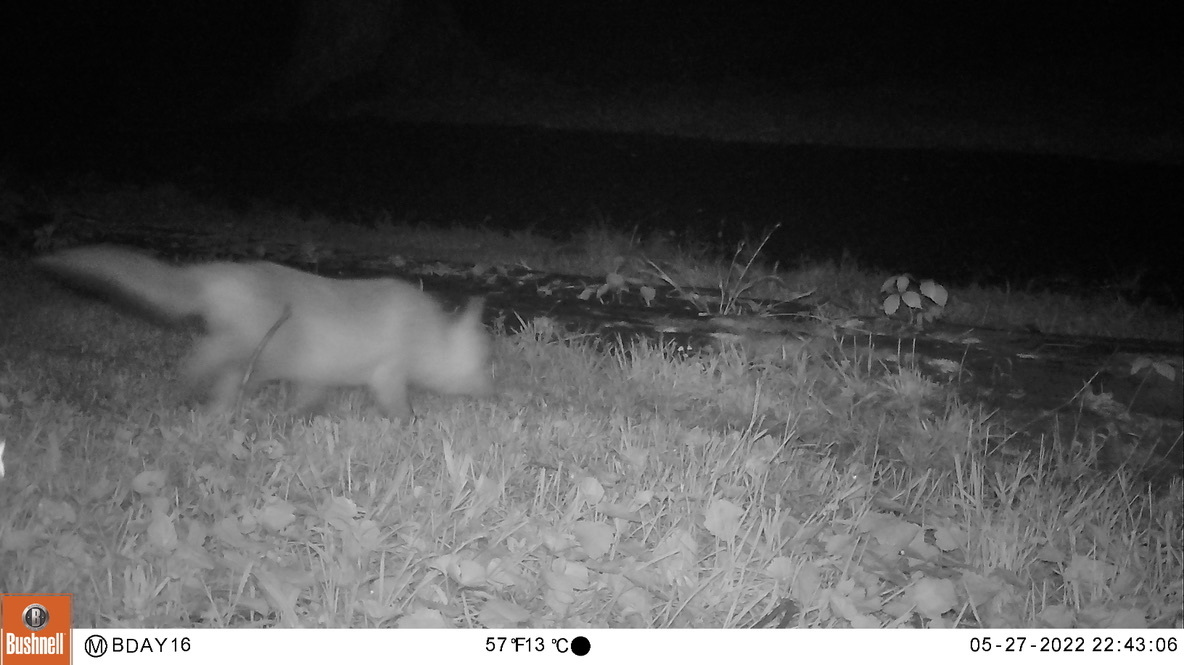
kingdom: Animalia
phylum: Chordata
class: Mammalia
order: Carnivora
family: Canidae
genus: Vulpes
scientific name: Vulpes vulpes
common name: Red fox
